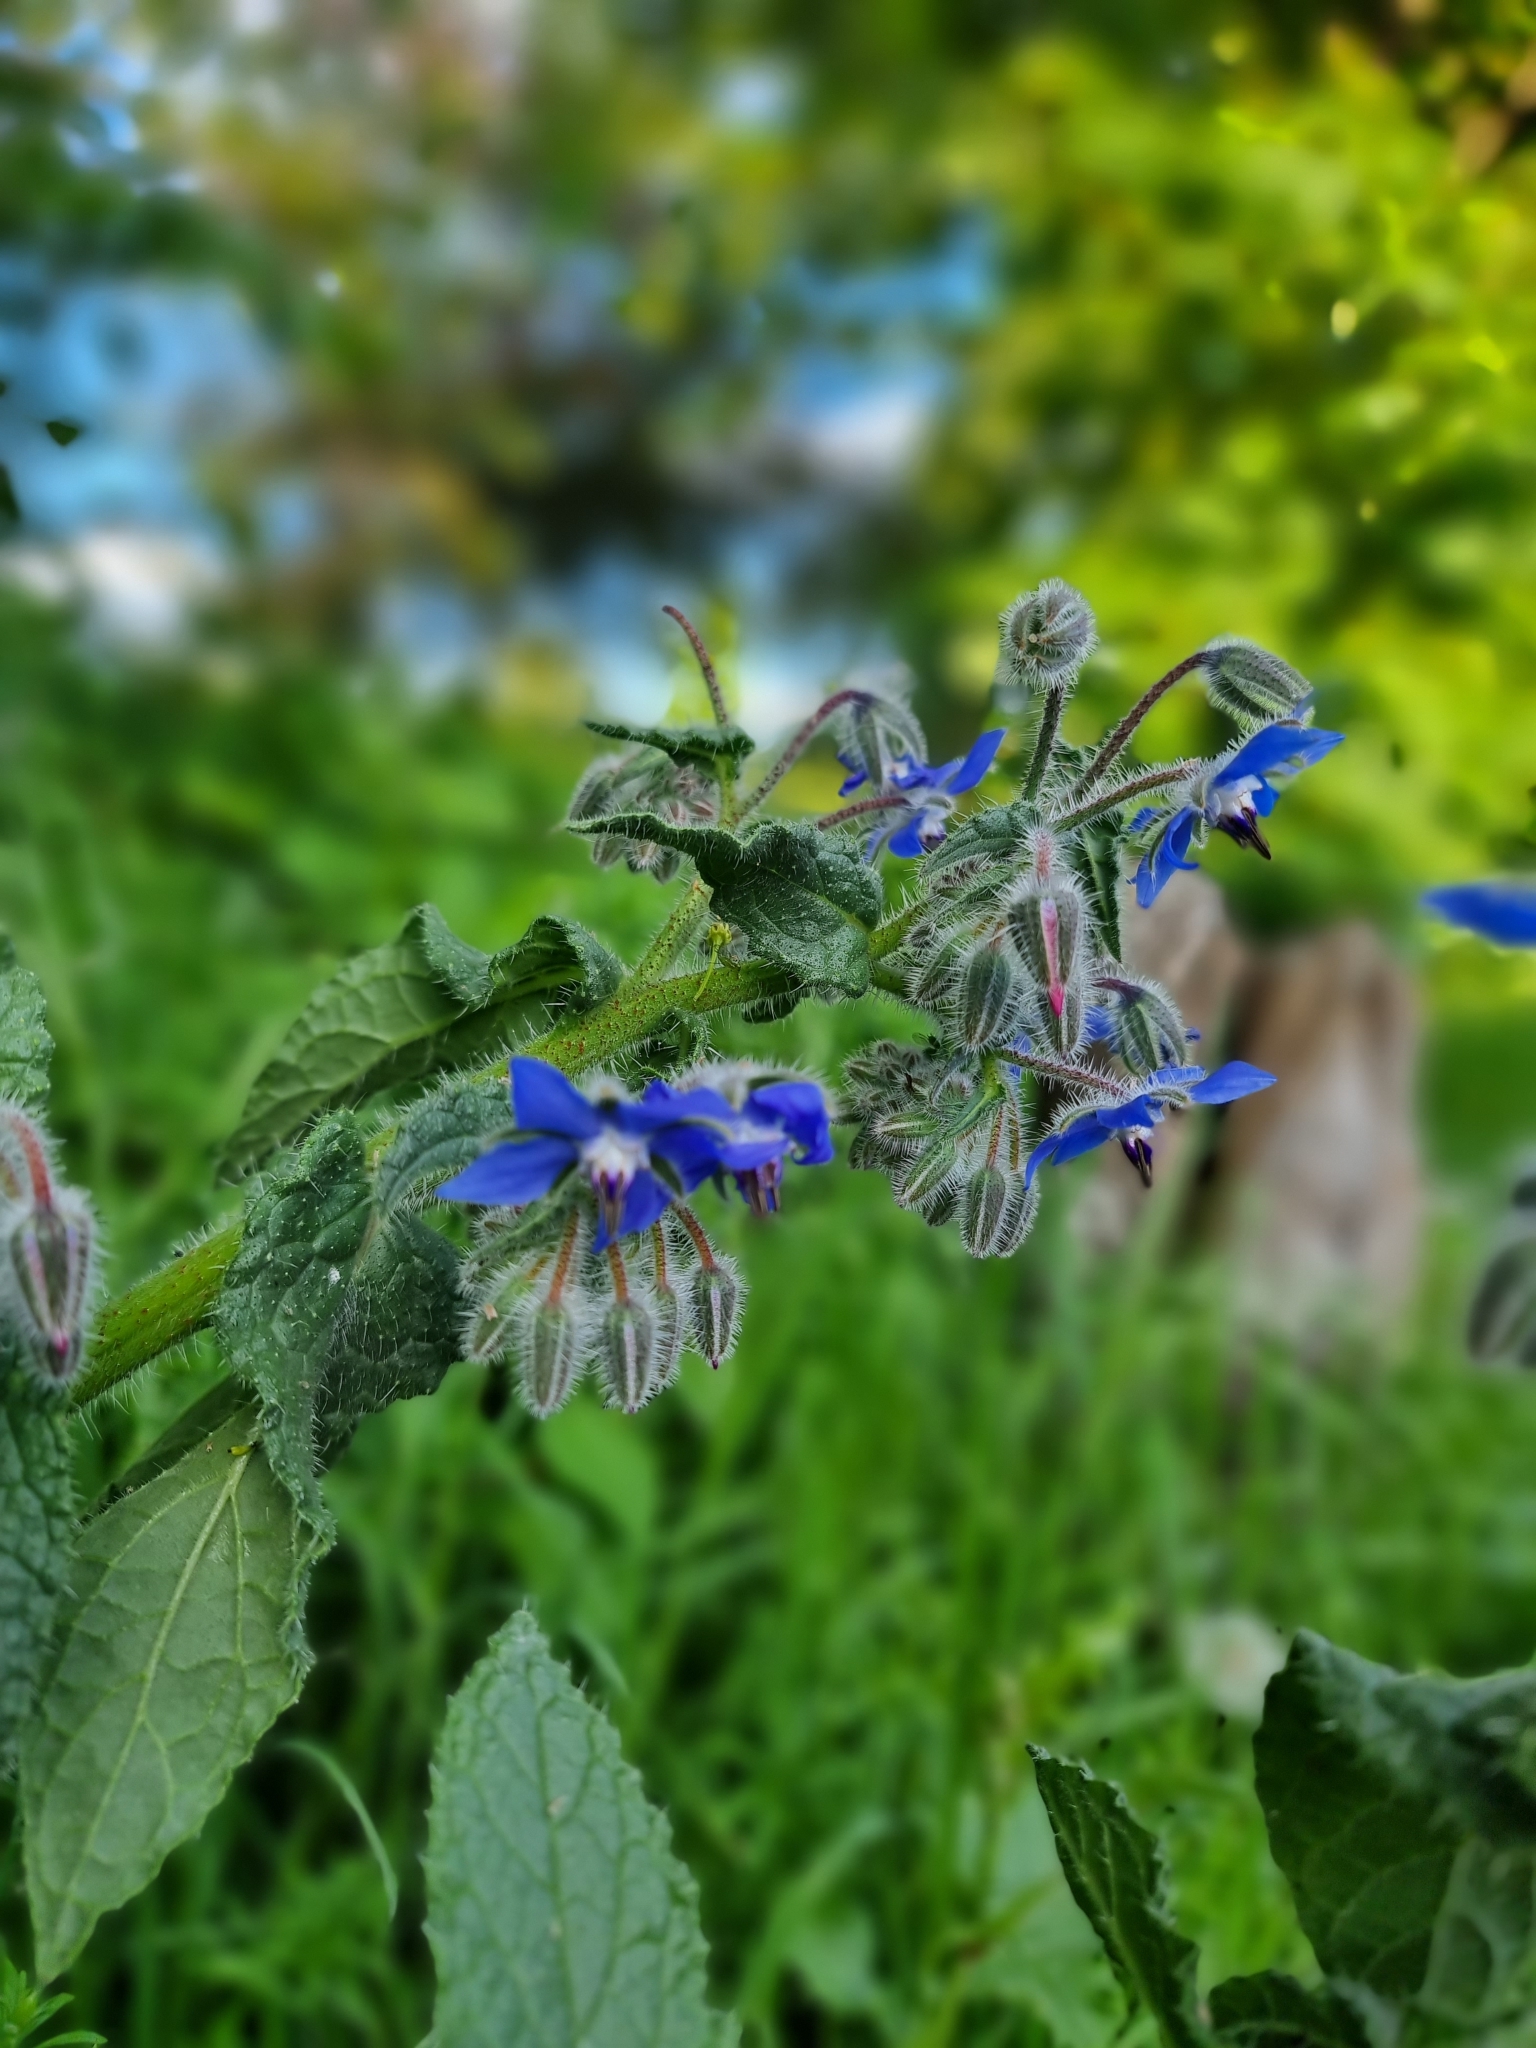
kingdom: Plantae
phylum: Tracheophyta
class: Magnoliopsida
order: Boraginales
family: Boraginaceae
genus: Borago
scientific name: Borago officinalis
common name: Borage
